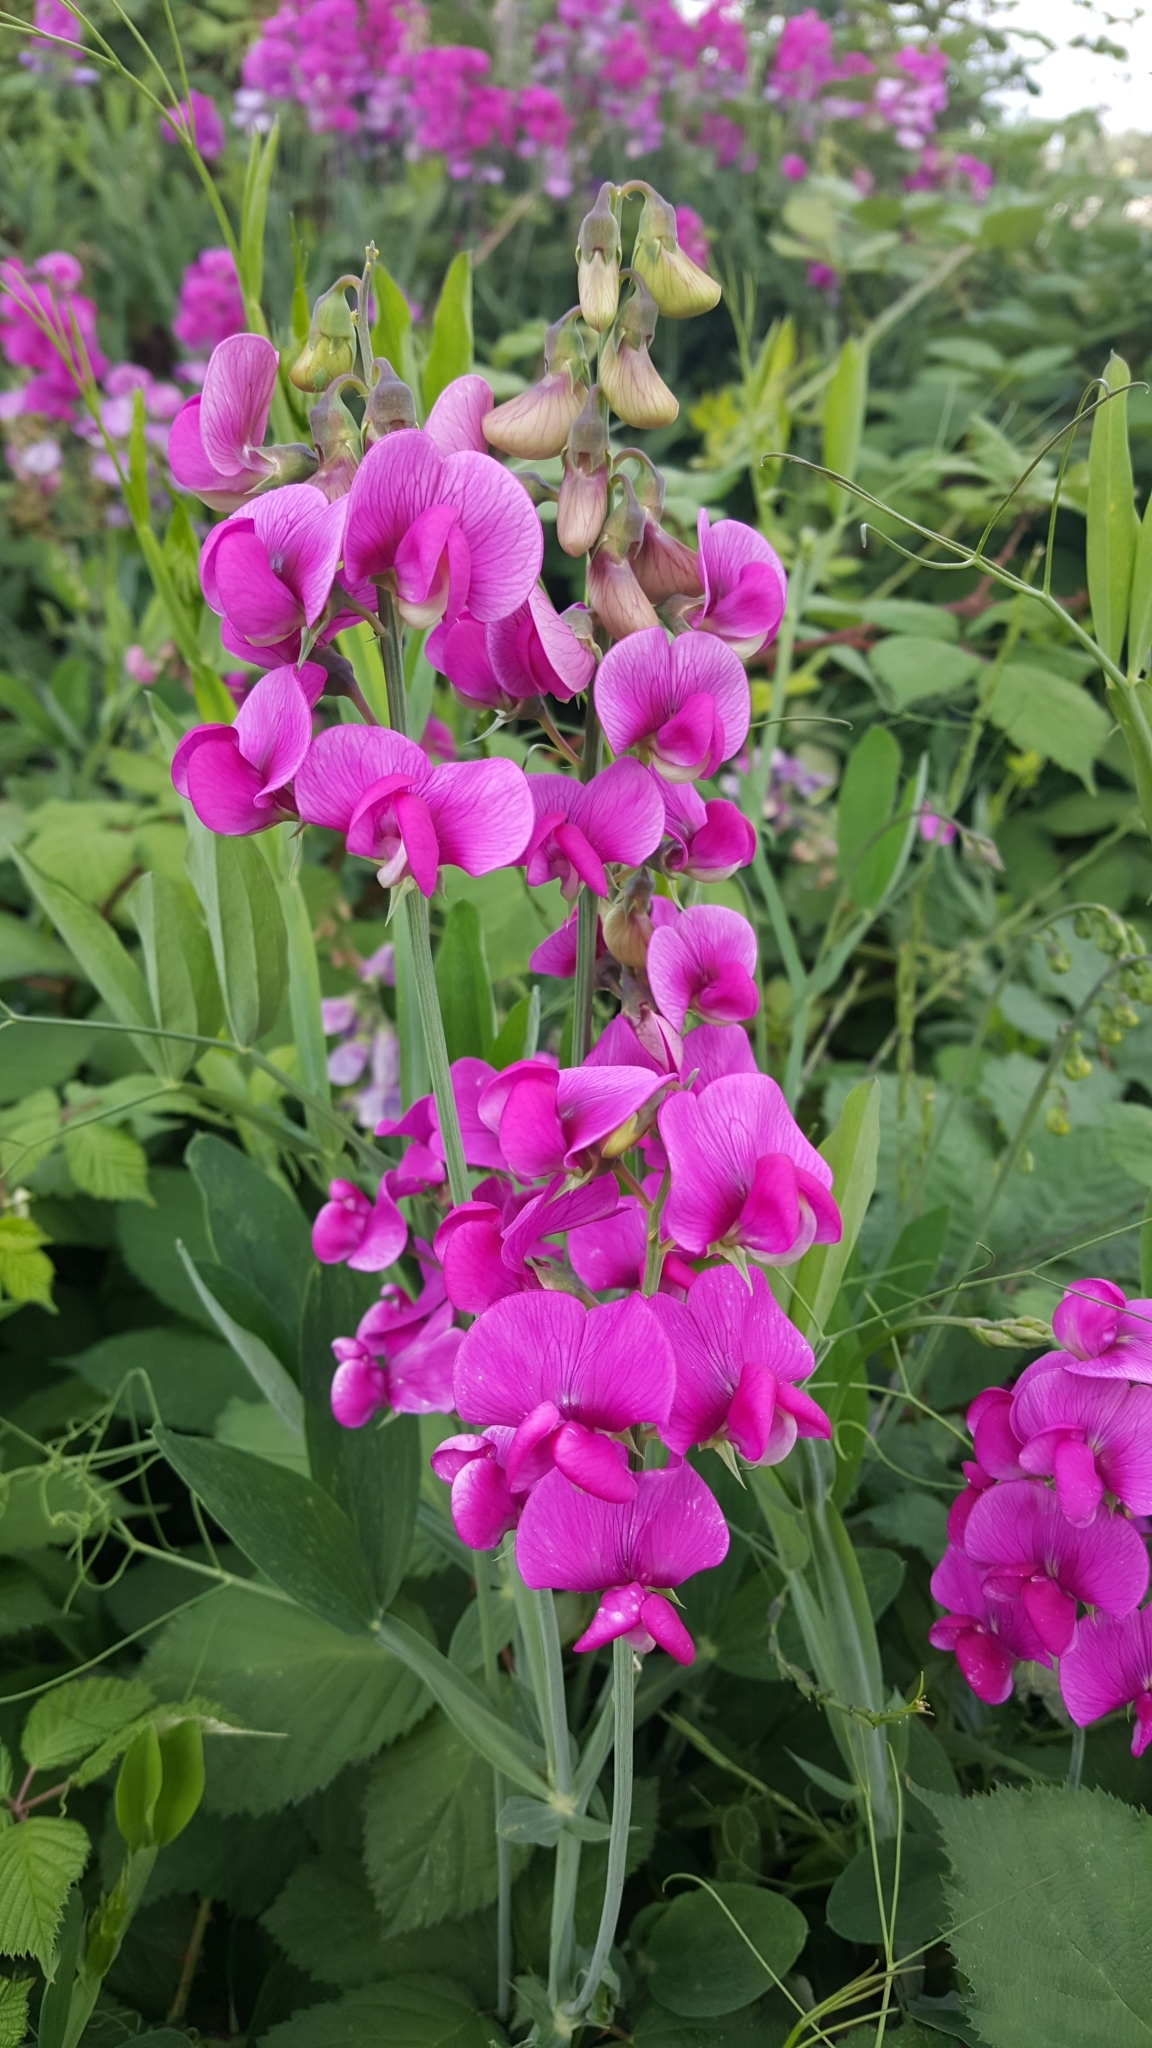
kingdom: Plantae
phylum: Tracheophyta
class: Magnoliopsida
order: Fabales
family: Fabaceae
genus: Lathyrus
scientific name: Lathyrus latifolius
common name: Perennial pea
